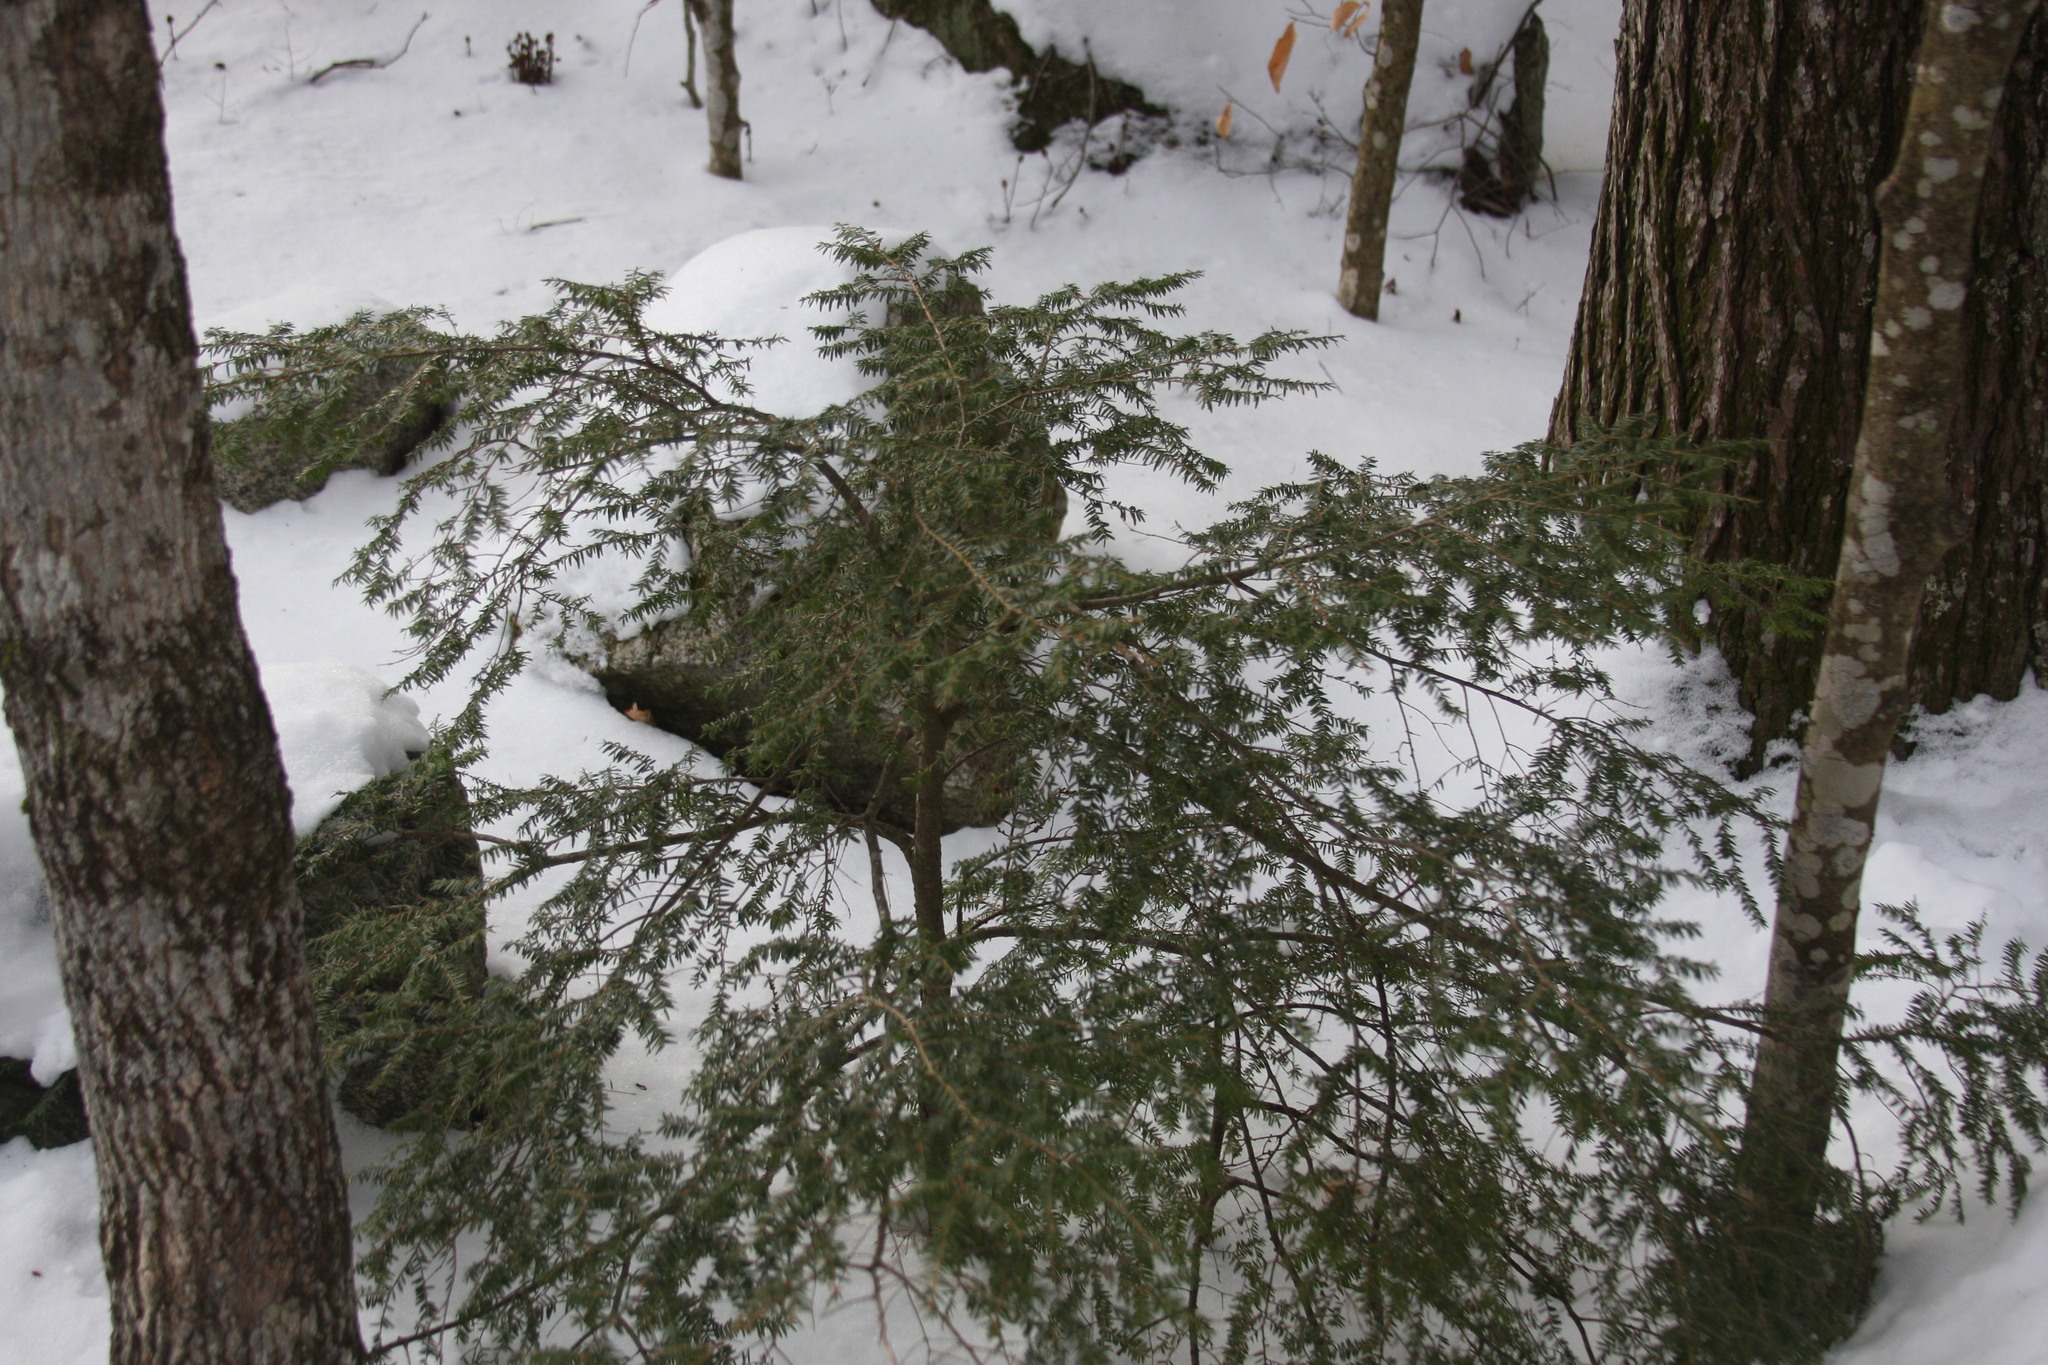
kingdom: Plantae
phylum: Tracheophyta
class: Pinopsida
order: Pinales
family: Pinaceae
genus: Tsuga
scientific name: Tsuga canadensis
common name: Eastern hemlock
